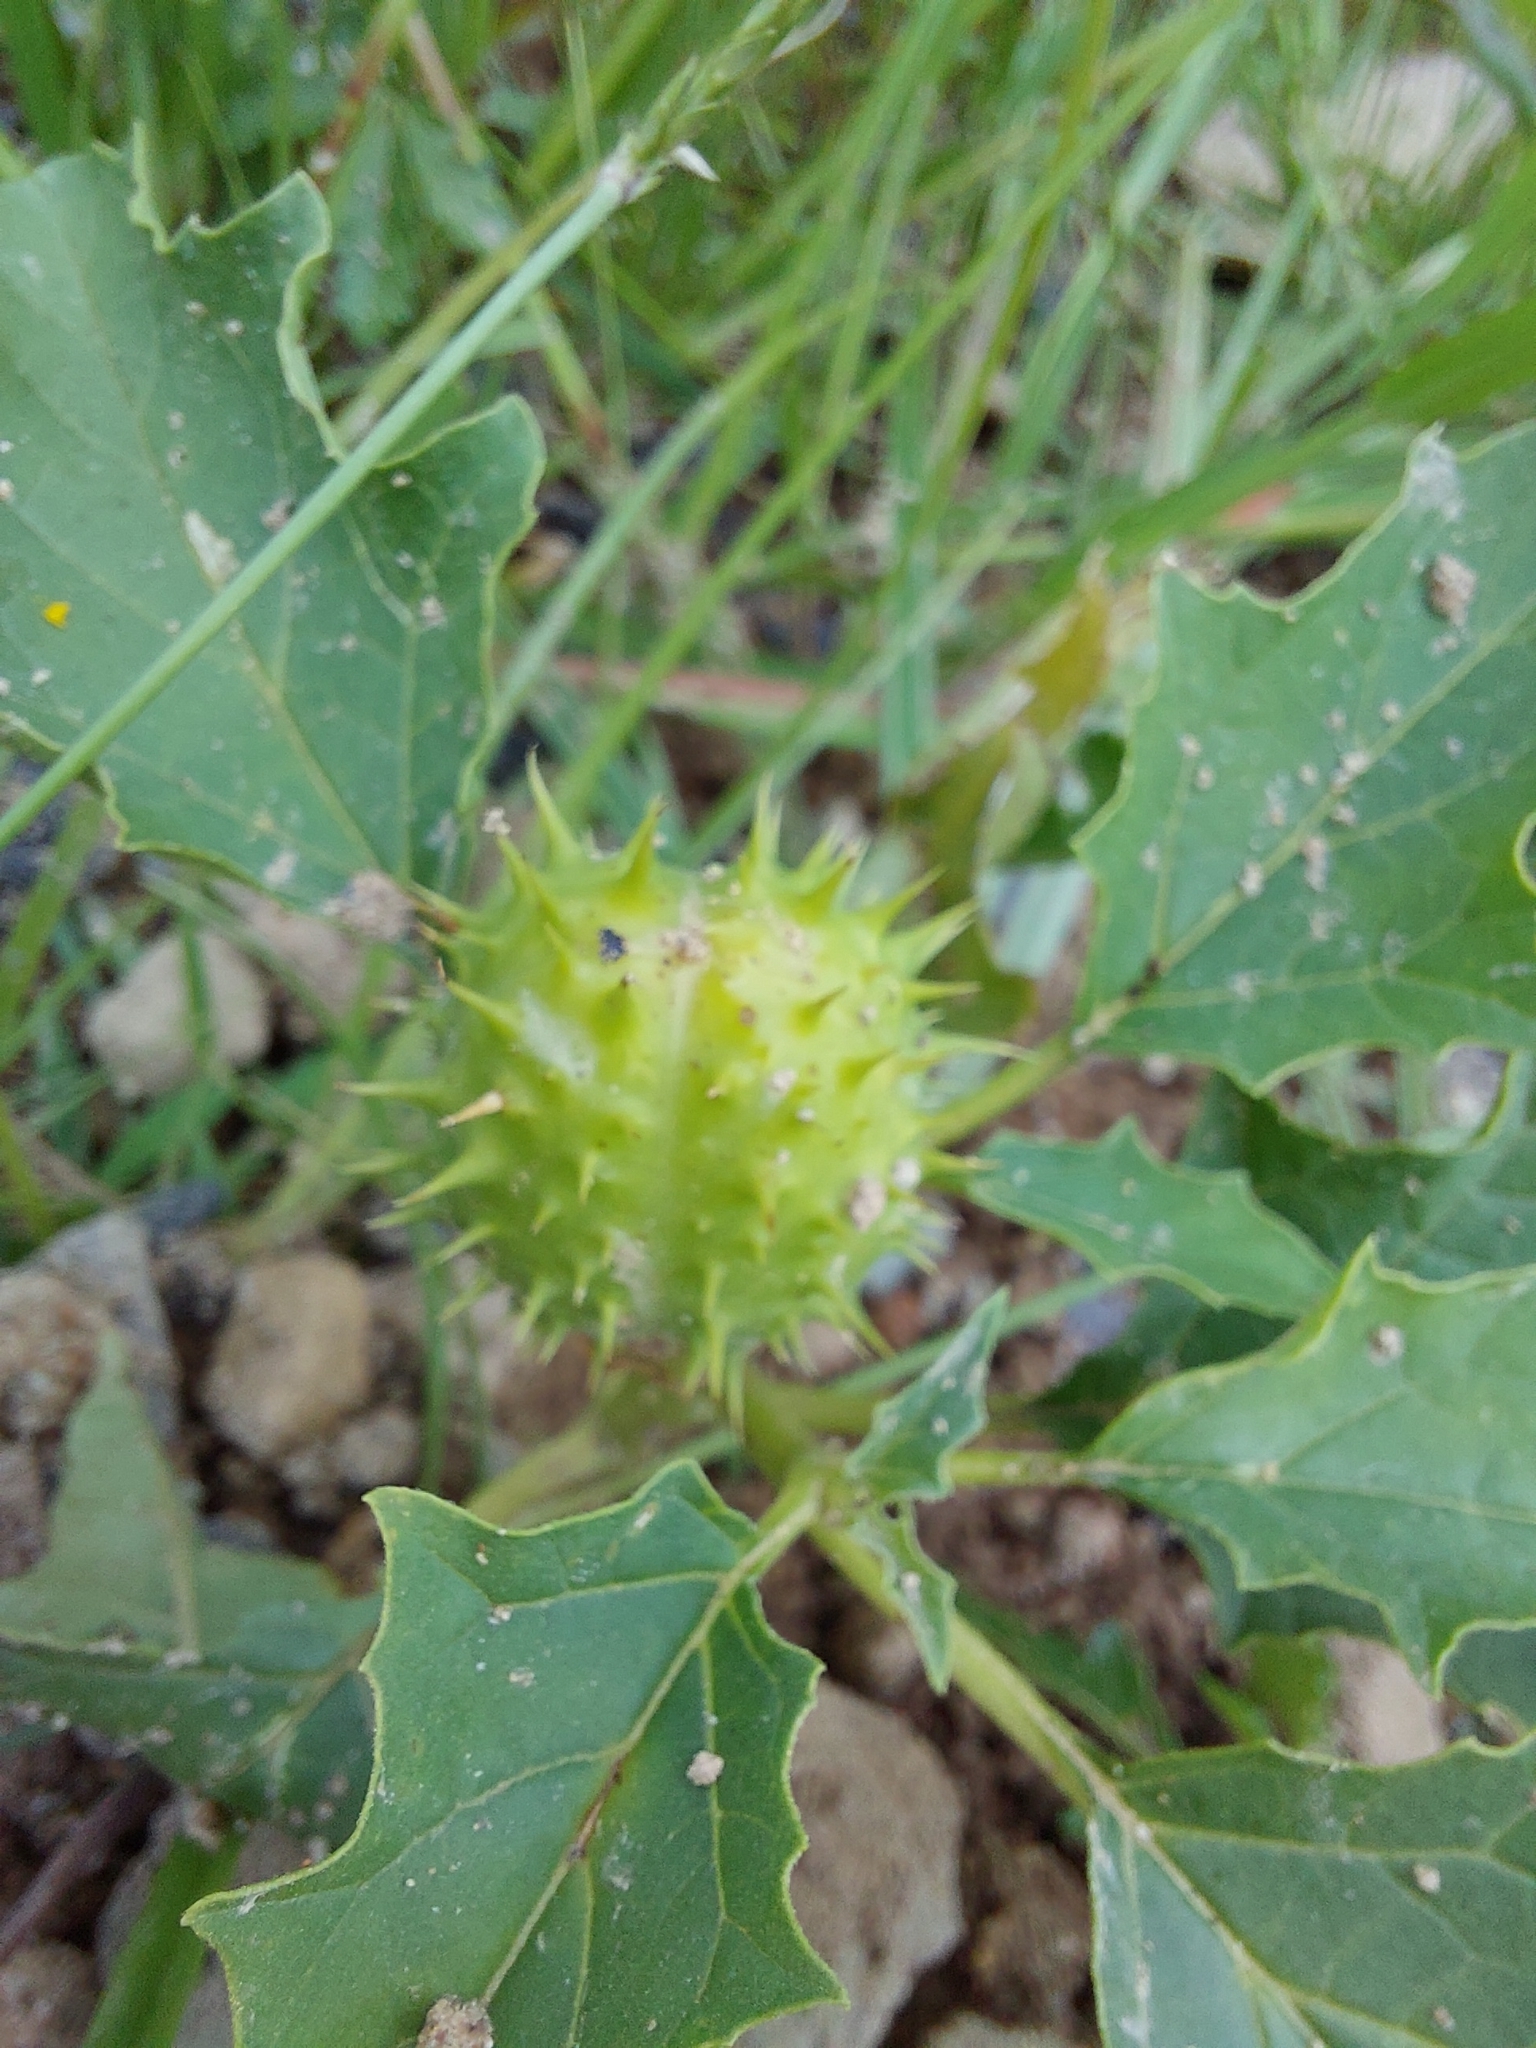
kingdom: Plantae
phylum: Tracheophyta
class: Magnoliopsida
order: Solanales
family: Solanaceae
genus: Datura
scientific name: Datura stramonium
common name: Thorn-apple
